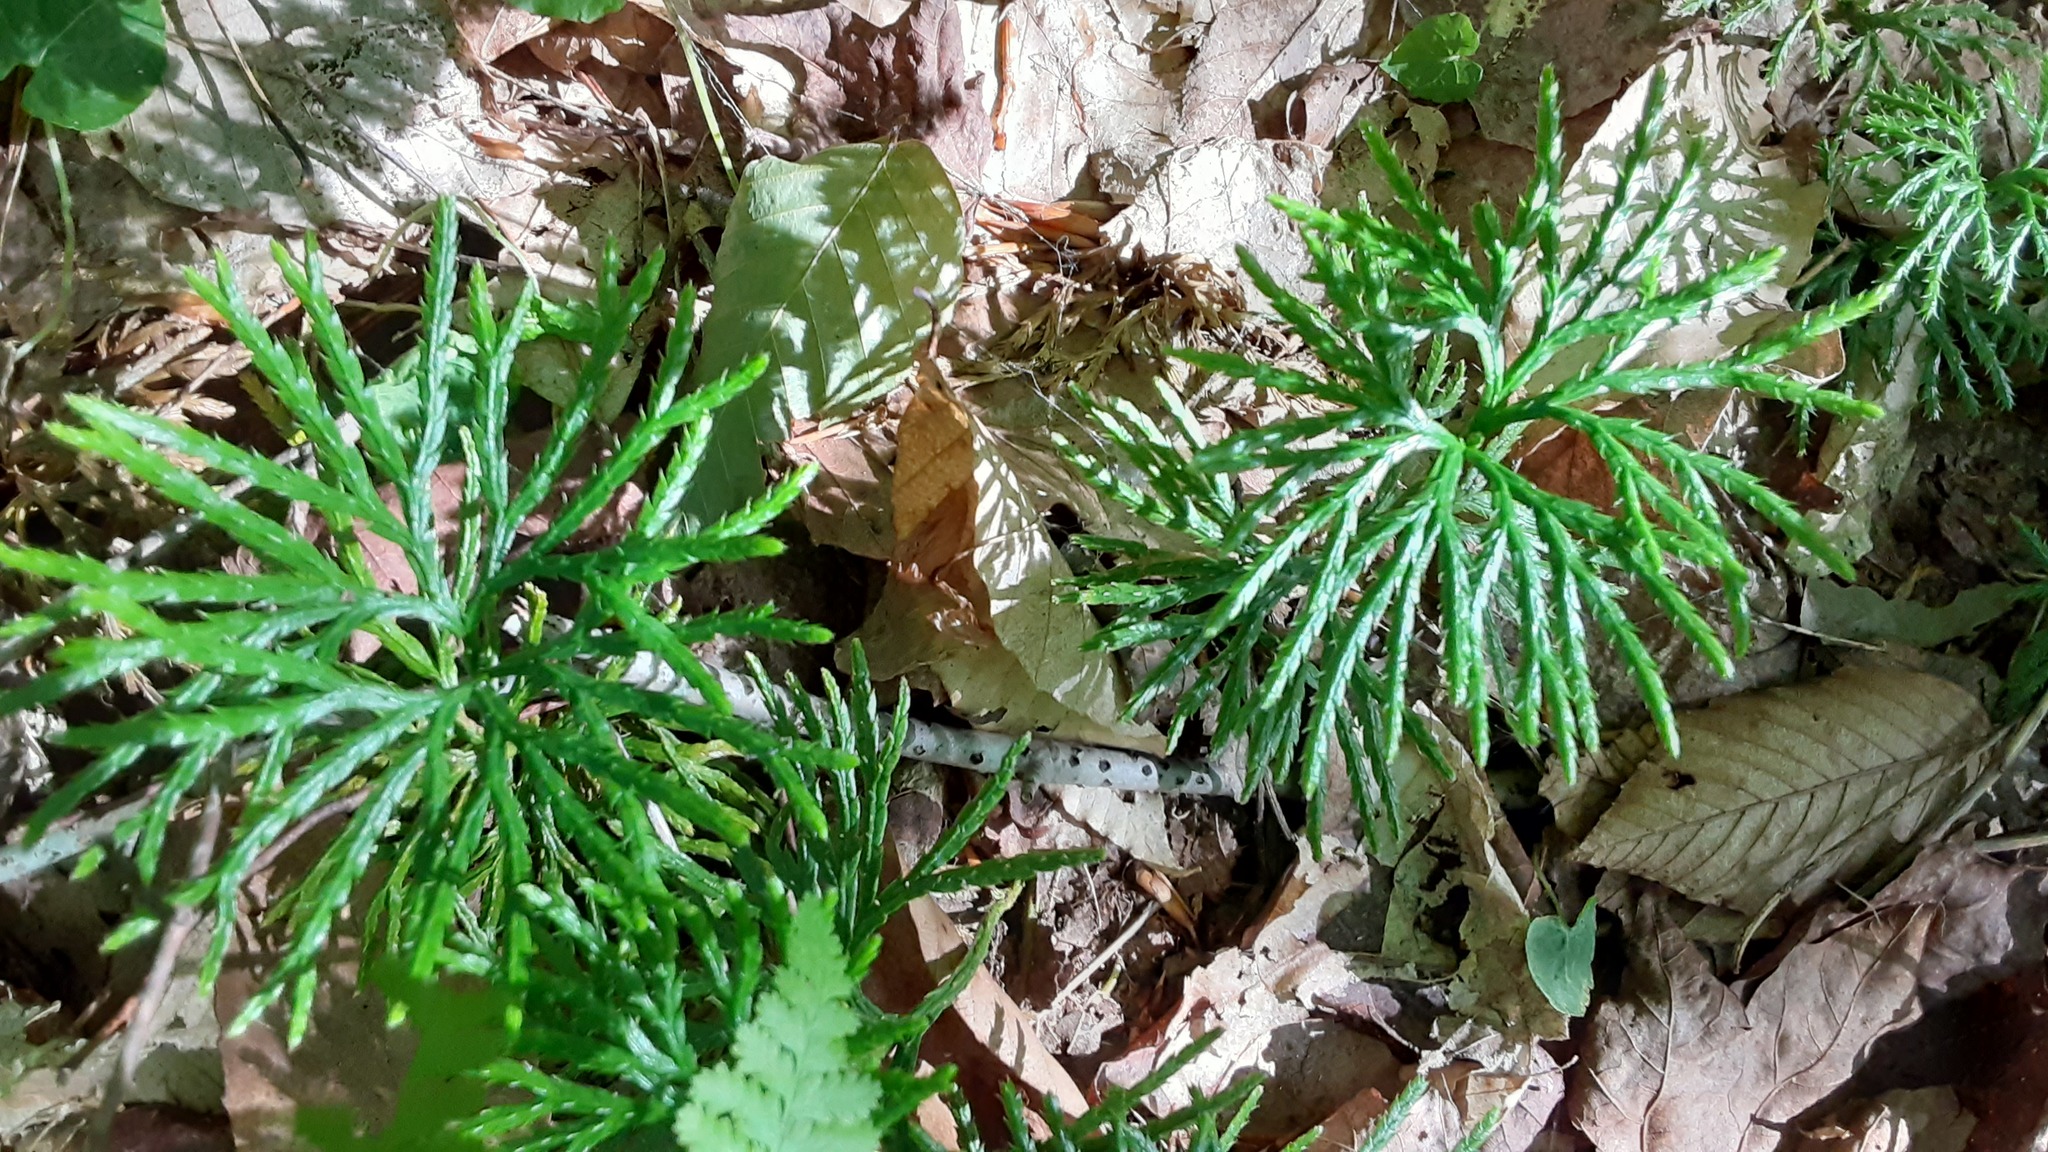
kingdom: Plantae
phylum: Tracheophyta
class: Lycopodiopsida
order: Lycopodiales
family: Lycopodiaceae
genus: Diphasiastrum
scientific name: Diphasiastrum digitatum
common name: Southern running-pine
